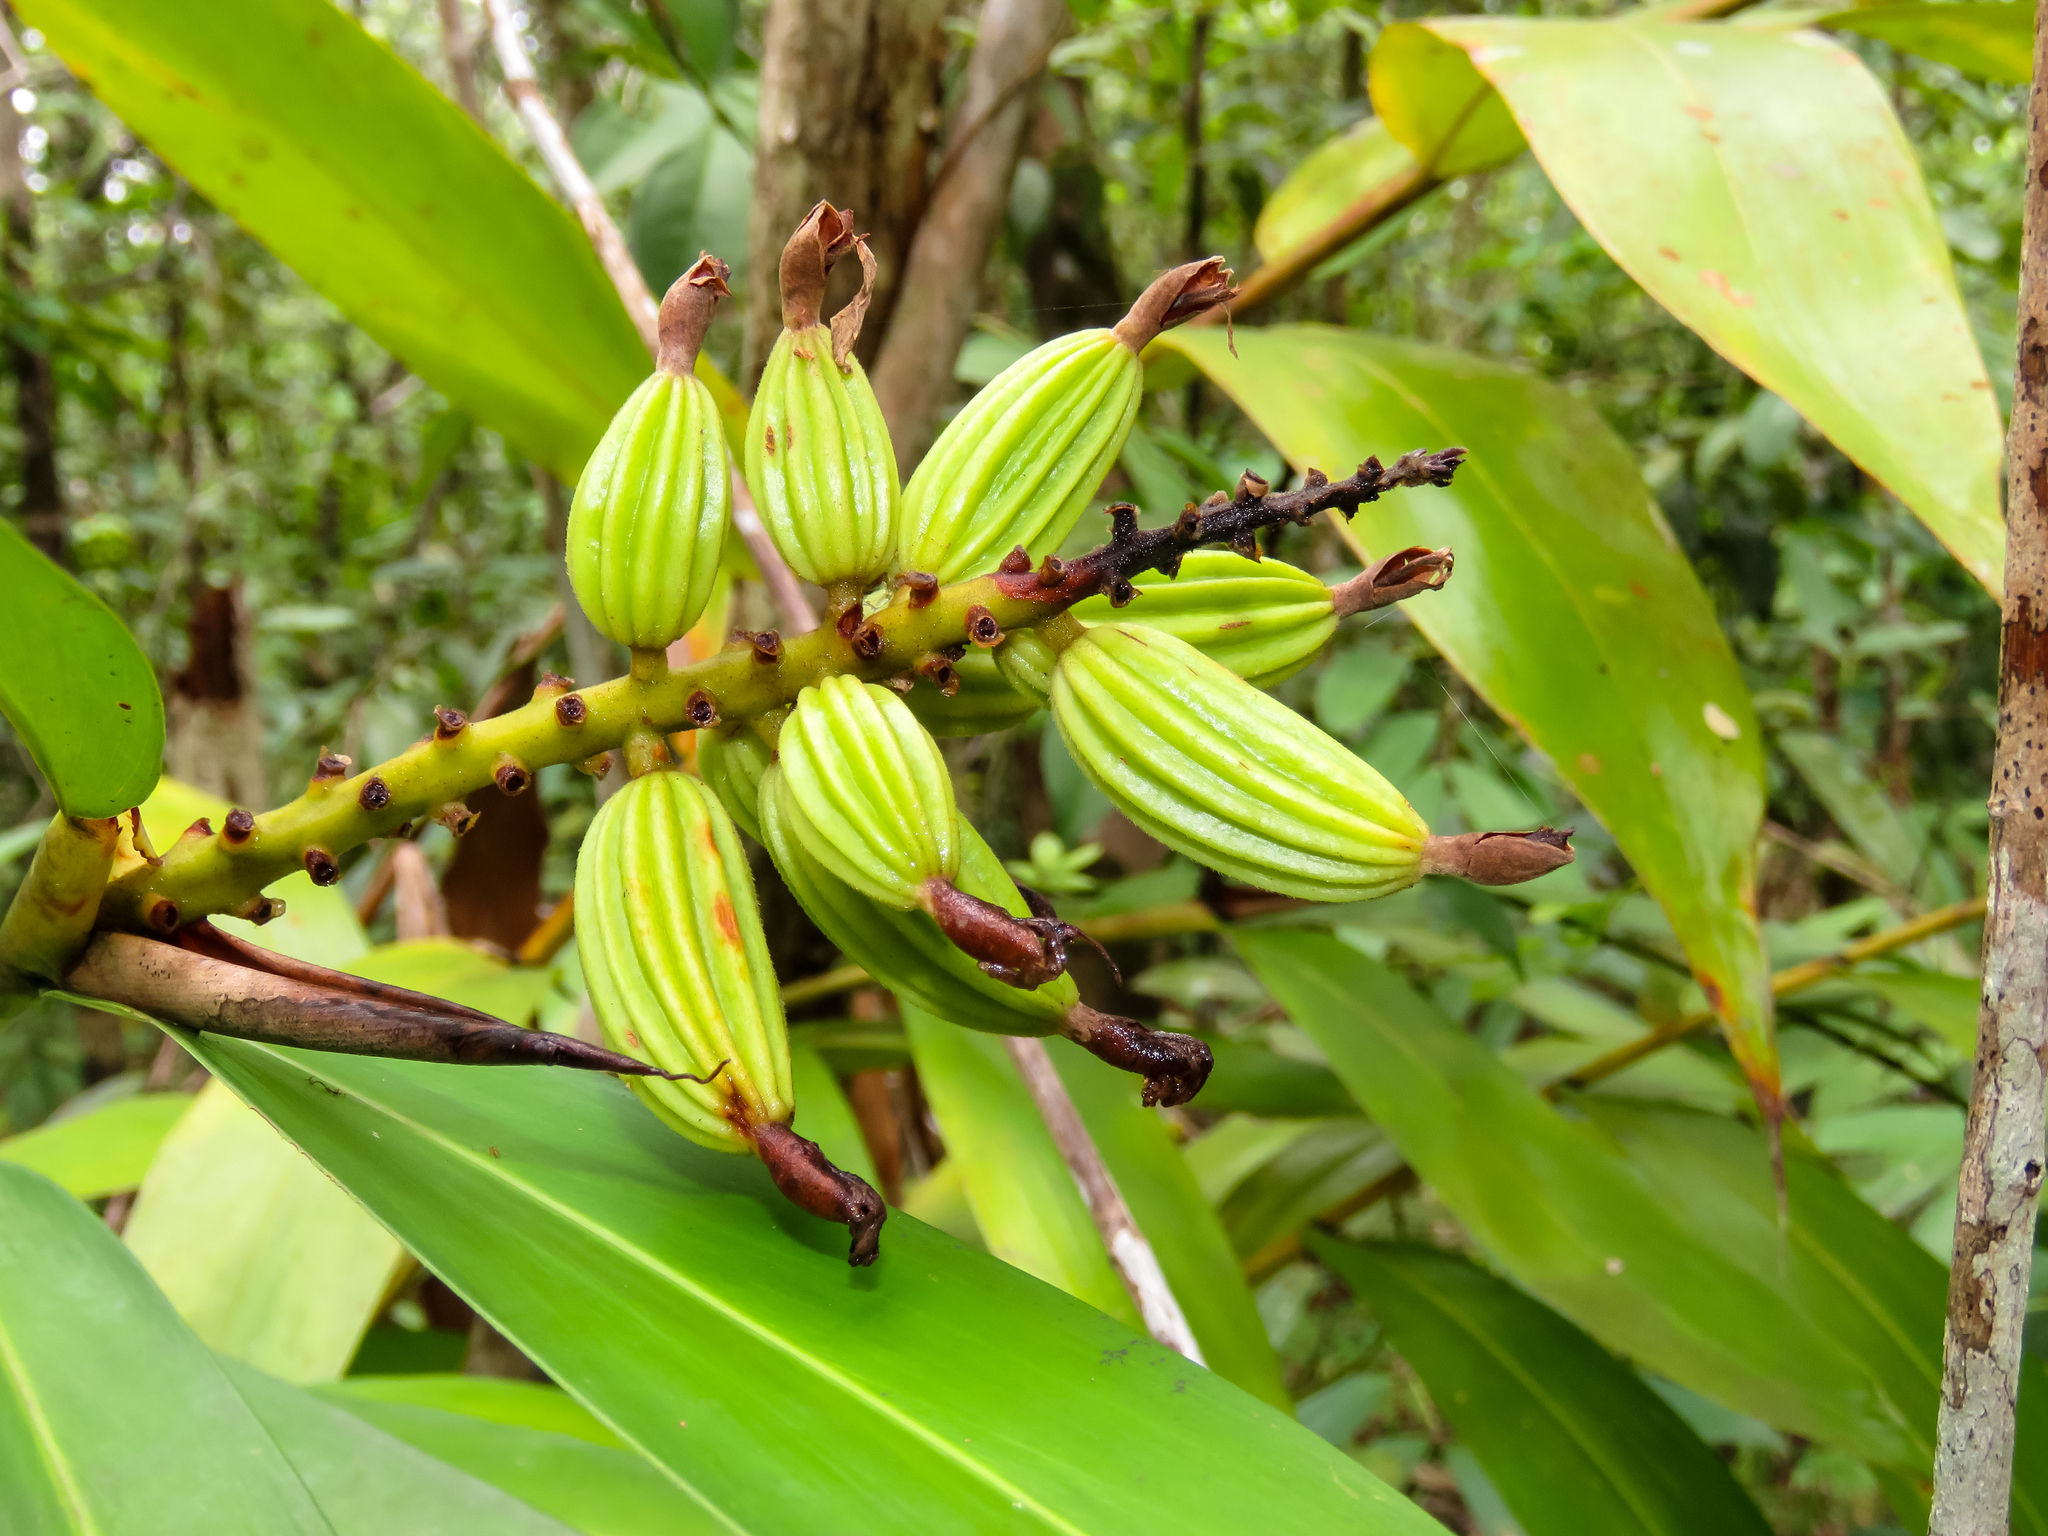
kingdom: Plantae
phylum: Tracheophyta
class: Liliopsida
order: Zingiberales
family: Zingiberaceae
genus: Alpinia
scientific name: Alpinia oxymitra
